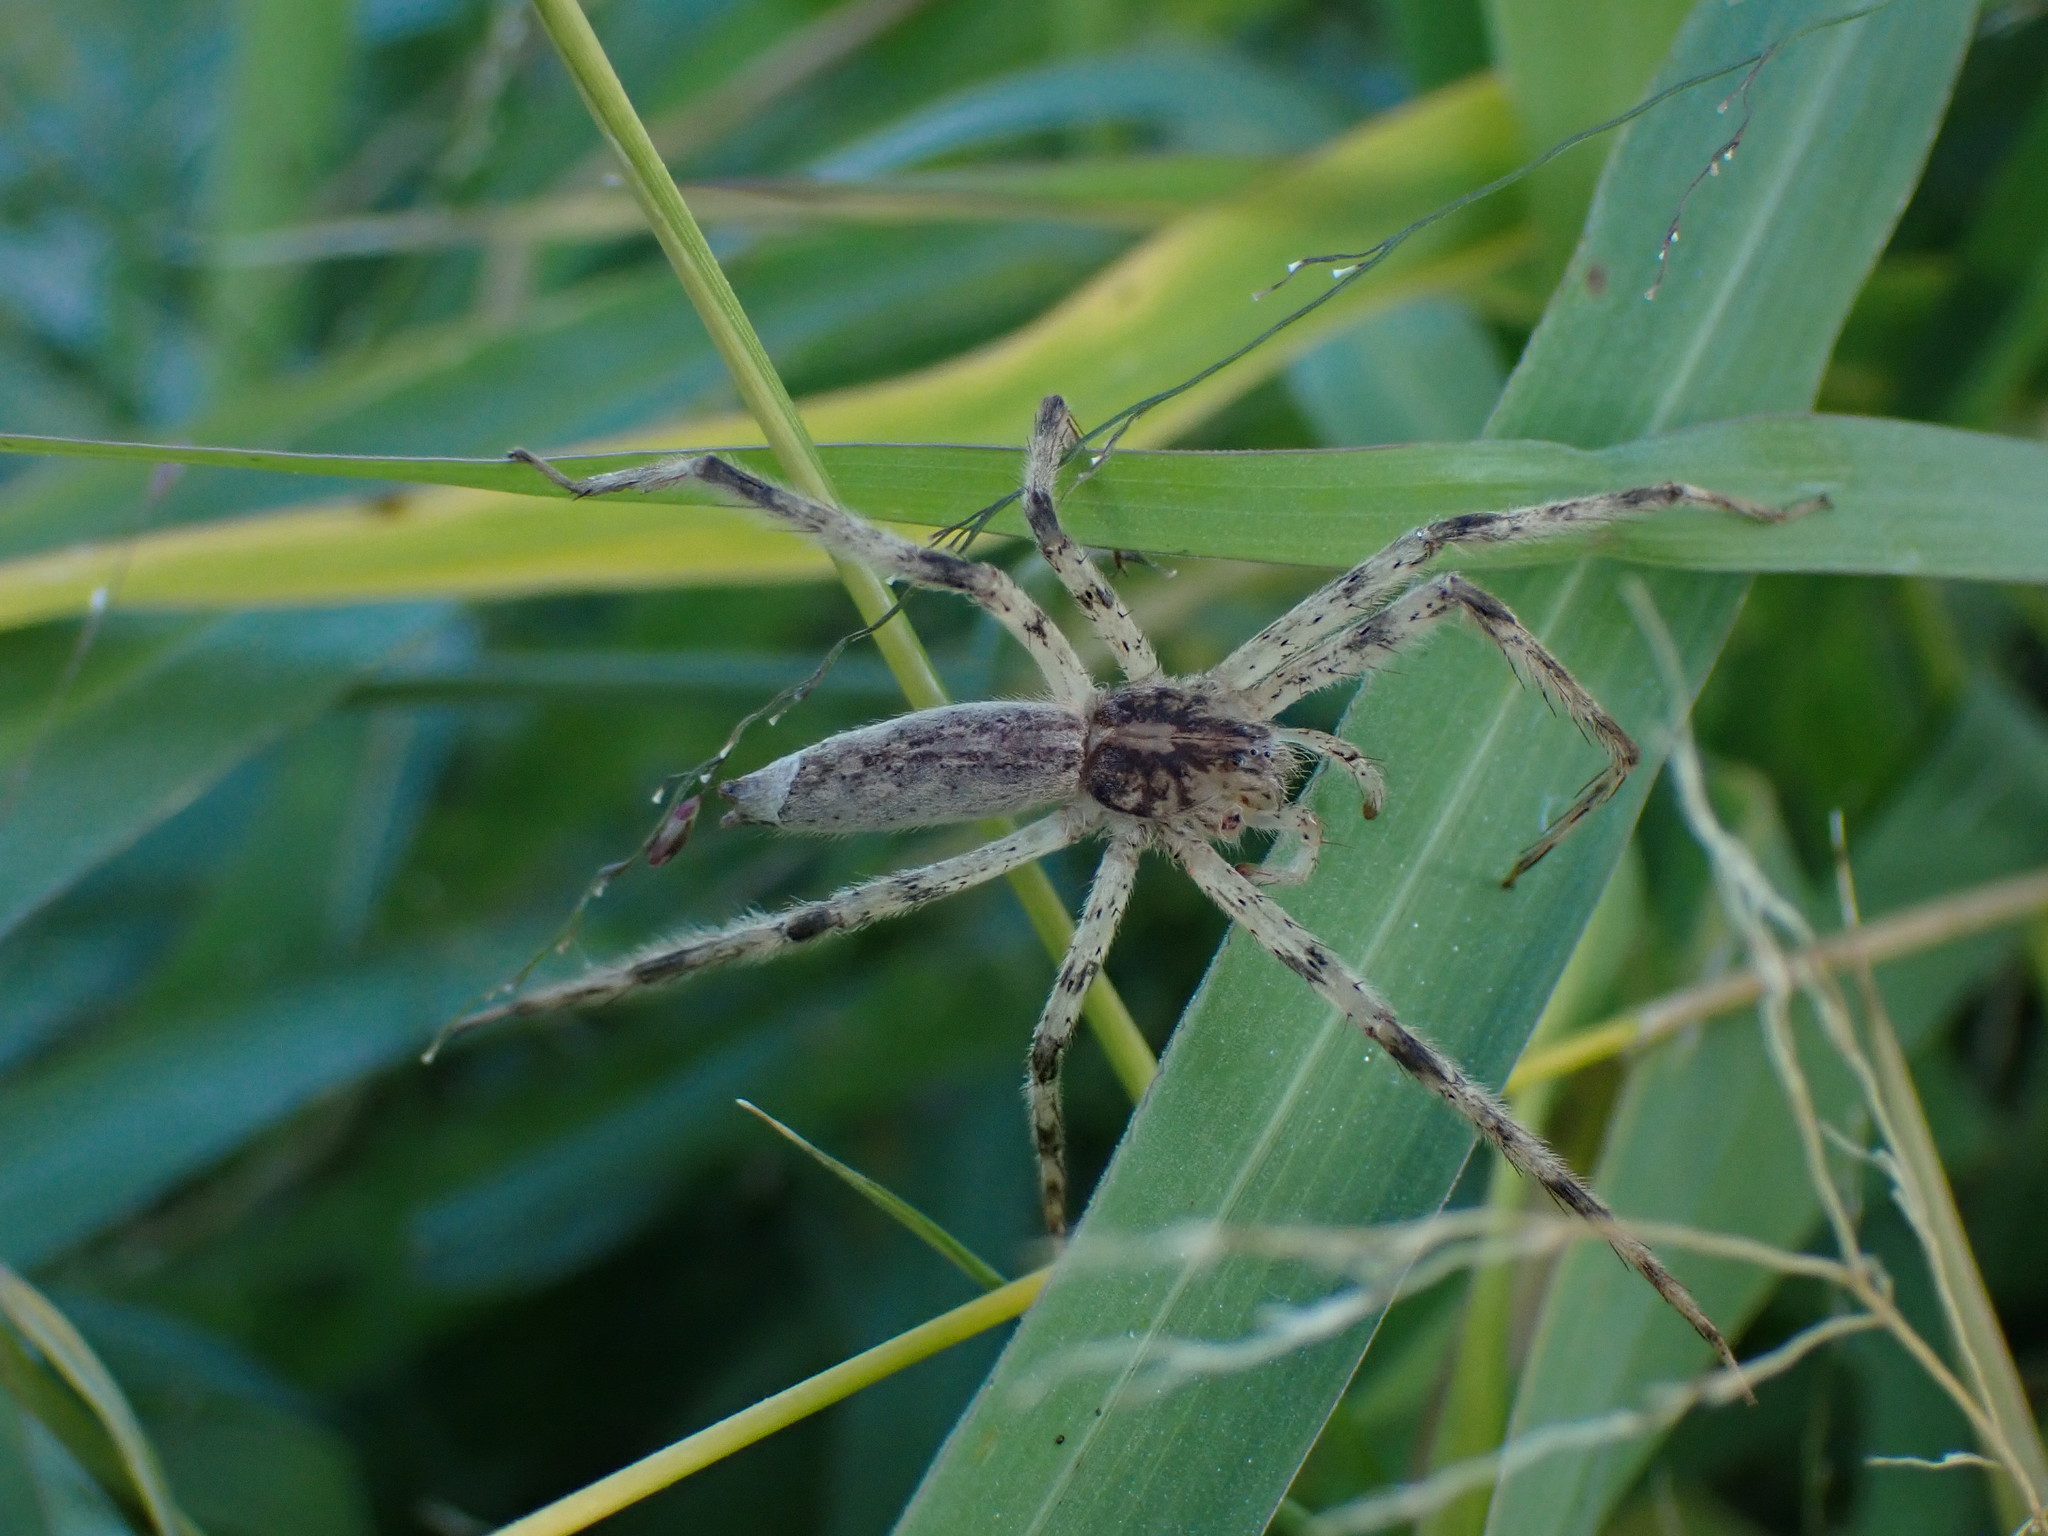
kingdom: Animalia
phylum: Arthropoda
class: Arachnida
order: Araneae
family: Pisauridae
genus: Pisaurina
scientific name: Pisaurina undulata
